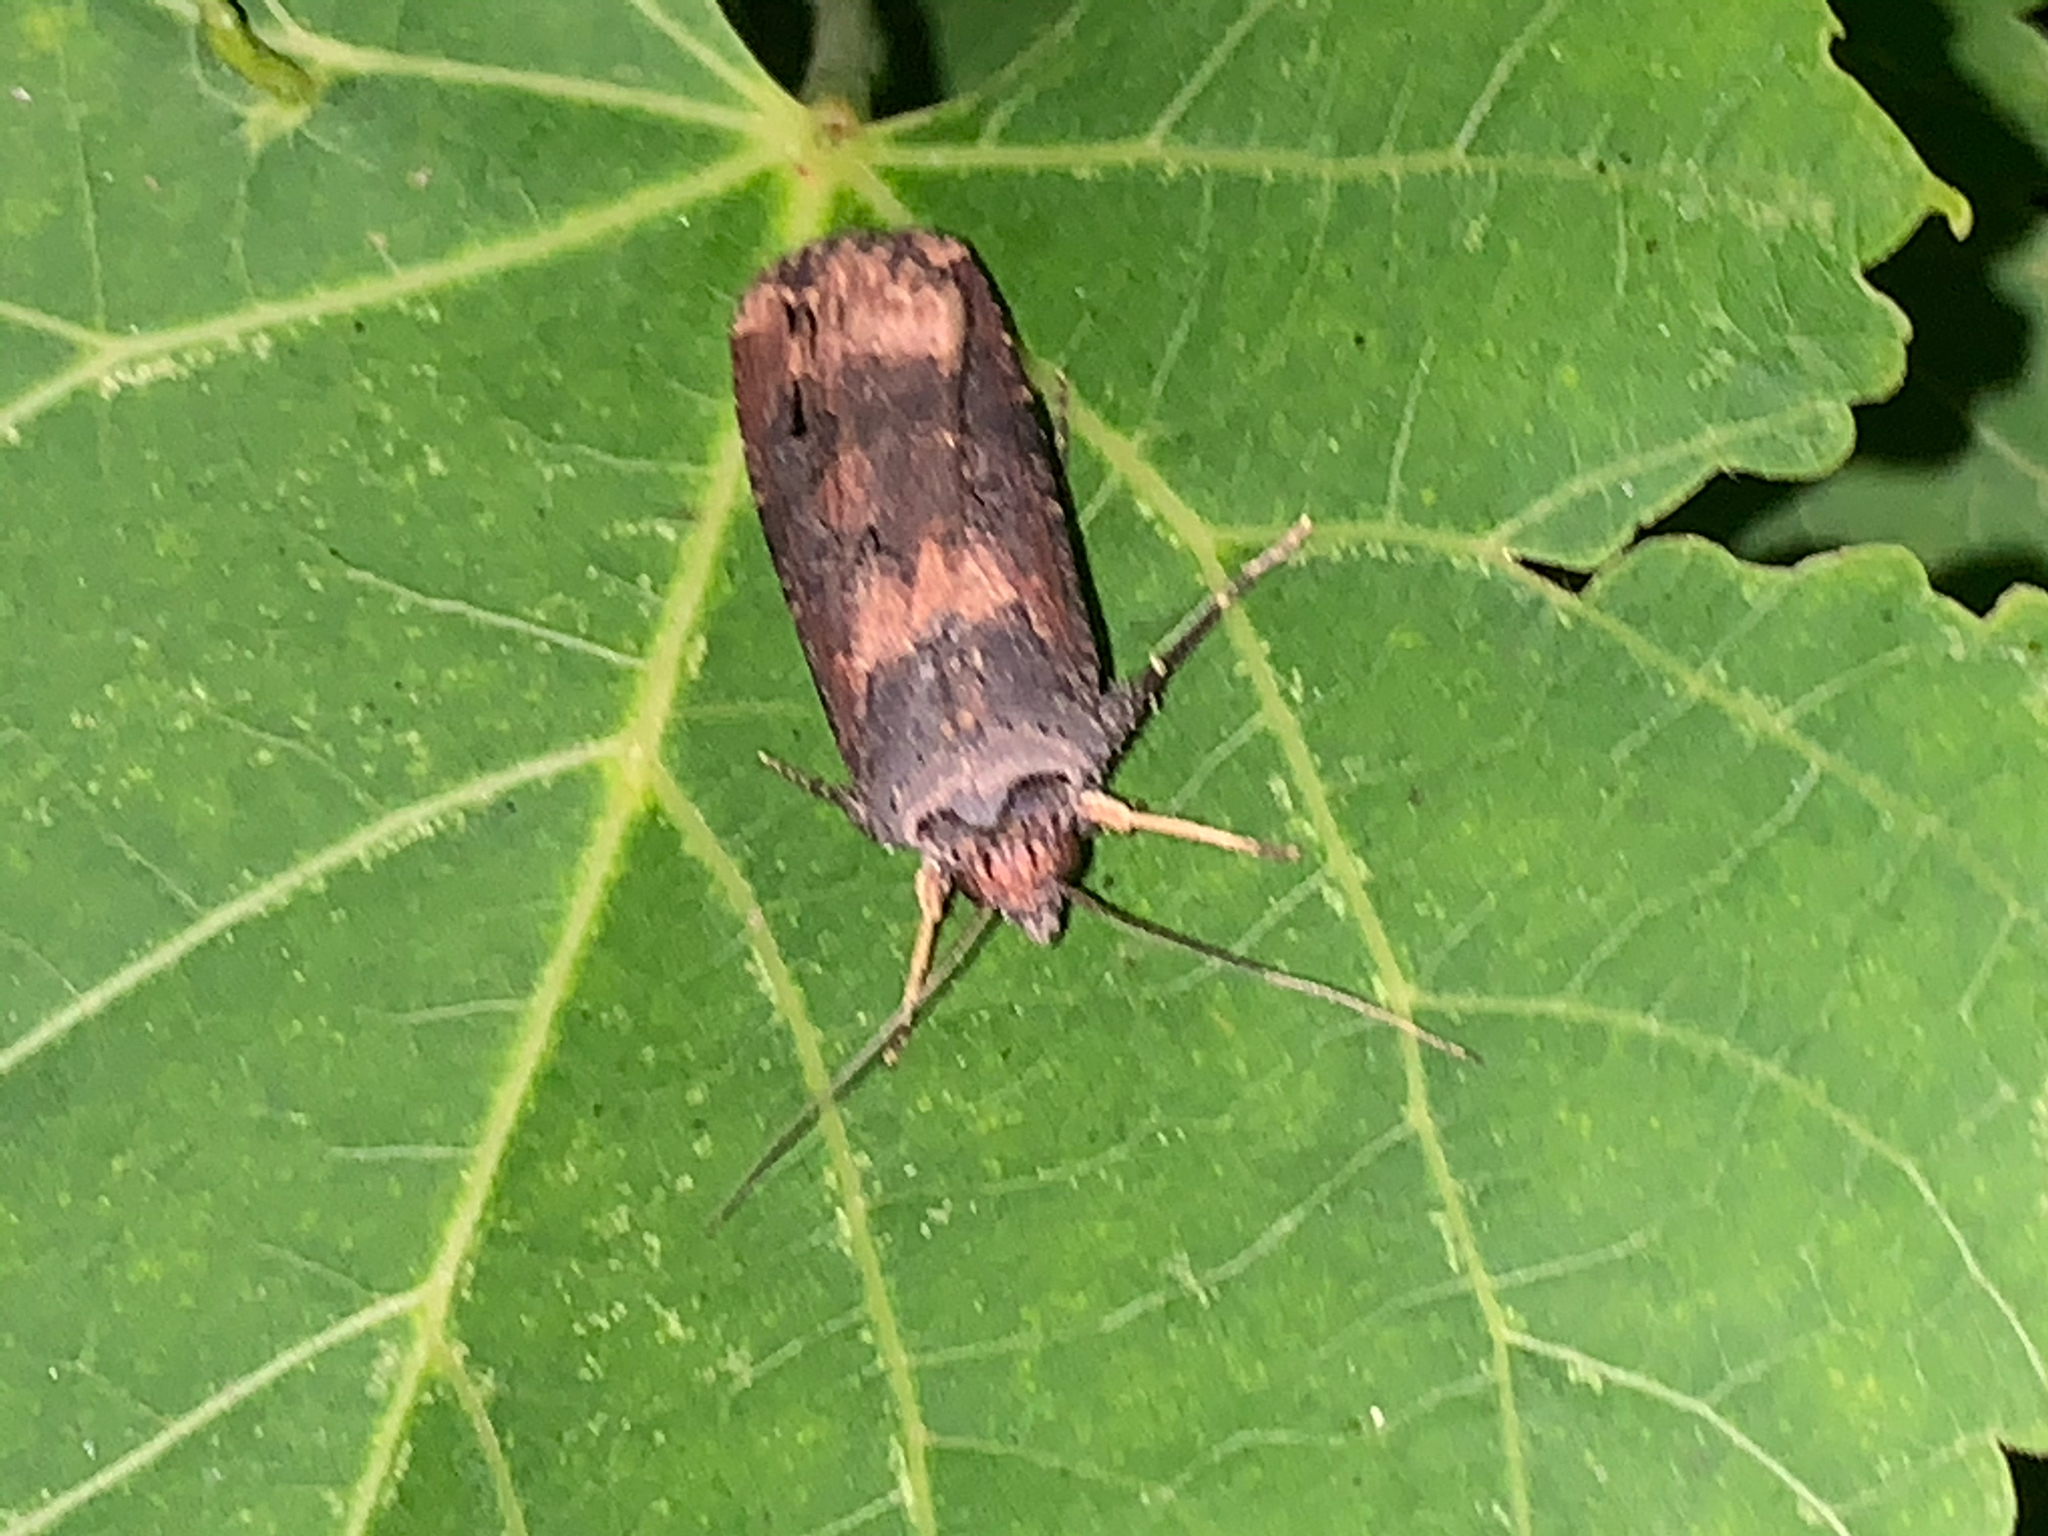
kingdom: Animalia
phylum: Arthropoda
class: Insecta
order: Lepidoptera
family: Noctuidae
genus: Agrotis
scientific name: Agrotis ipsilon
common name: Dark sword-grass
